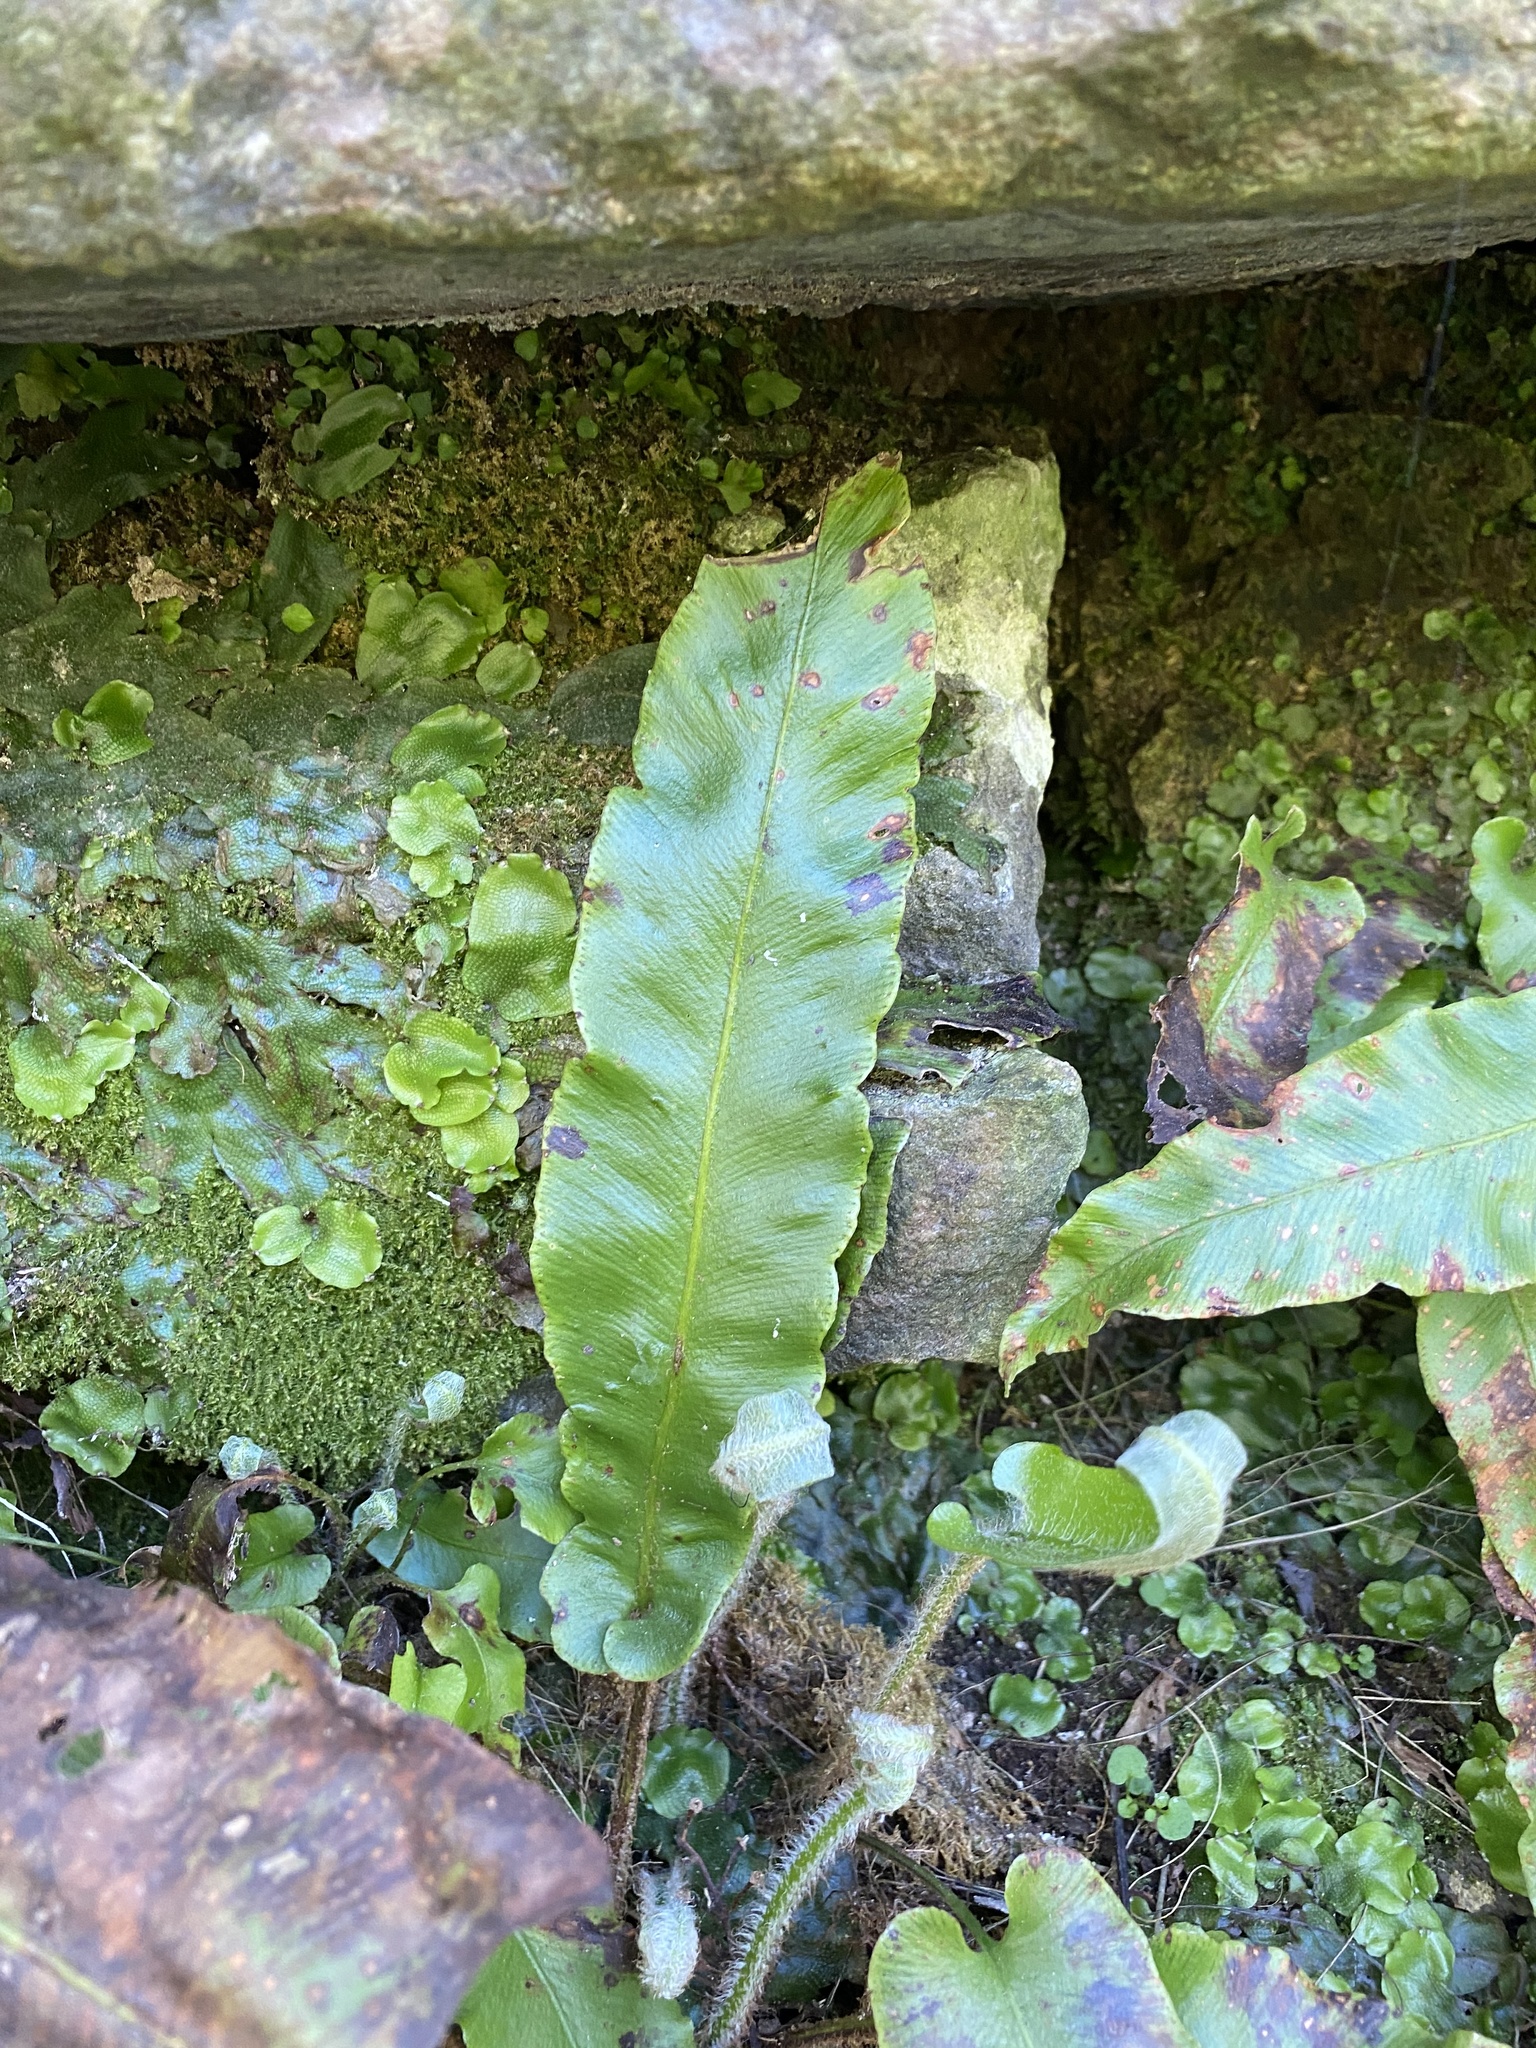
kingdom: Plantae
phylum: Tracheophyta
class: Polypodiopsida
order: Polypodiales
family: Aspleniaceae
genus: Asplenium
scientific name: Asplenium scolopendrium
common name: Hart's-tongue fern
